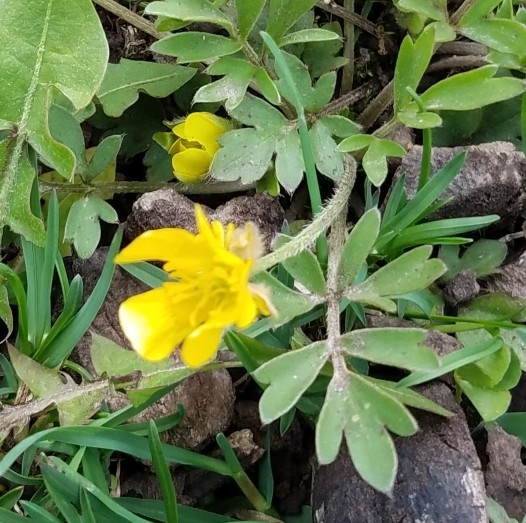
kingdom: Plantae
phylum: Tracheophyta
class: Magnoliopsida
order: Ranunculales
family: Ranunculaceae
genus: Ranunculus
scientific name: Ranunculus fascicularis
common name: Early buttercup
